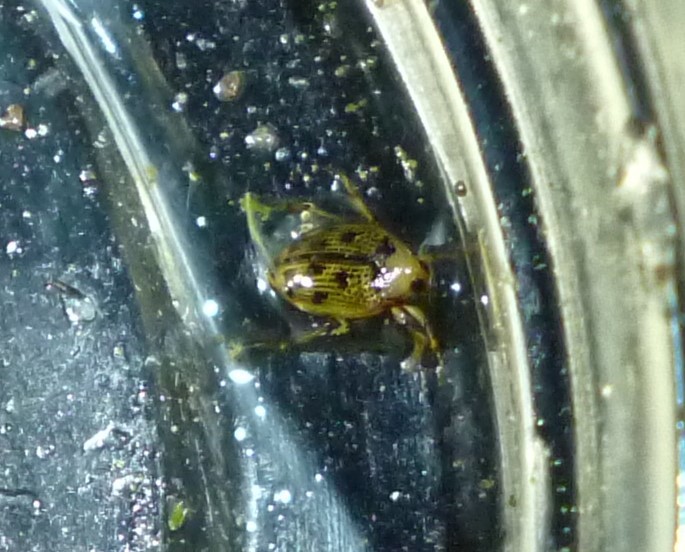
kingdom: Animalia
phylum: Arthropoda
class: Insecta
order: Coleoptera
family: Haliplidae
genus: Peltodytes
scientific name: Peltodytes
